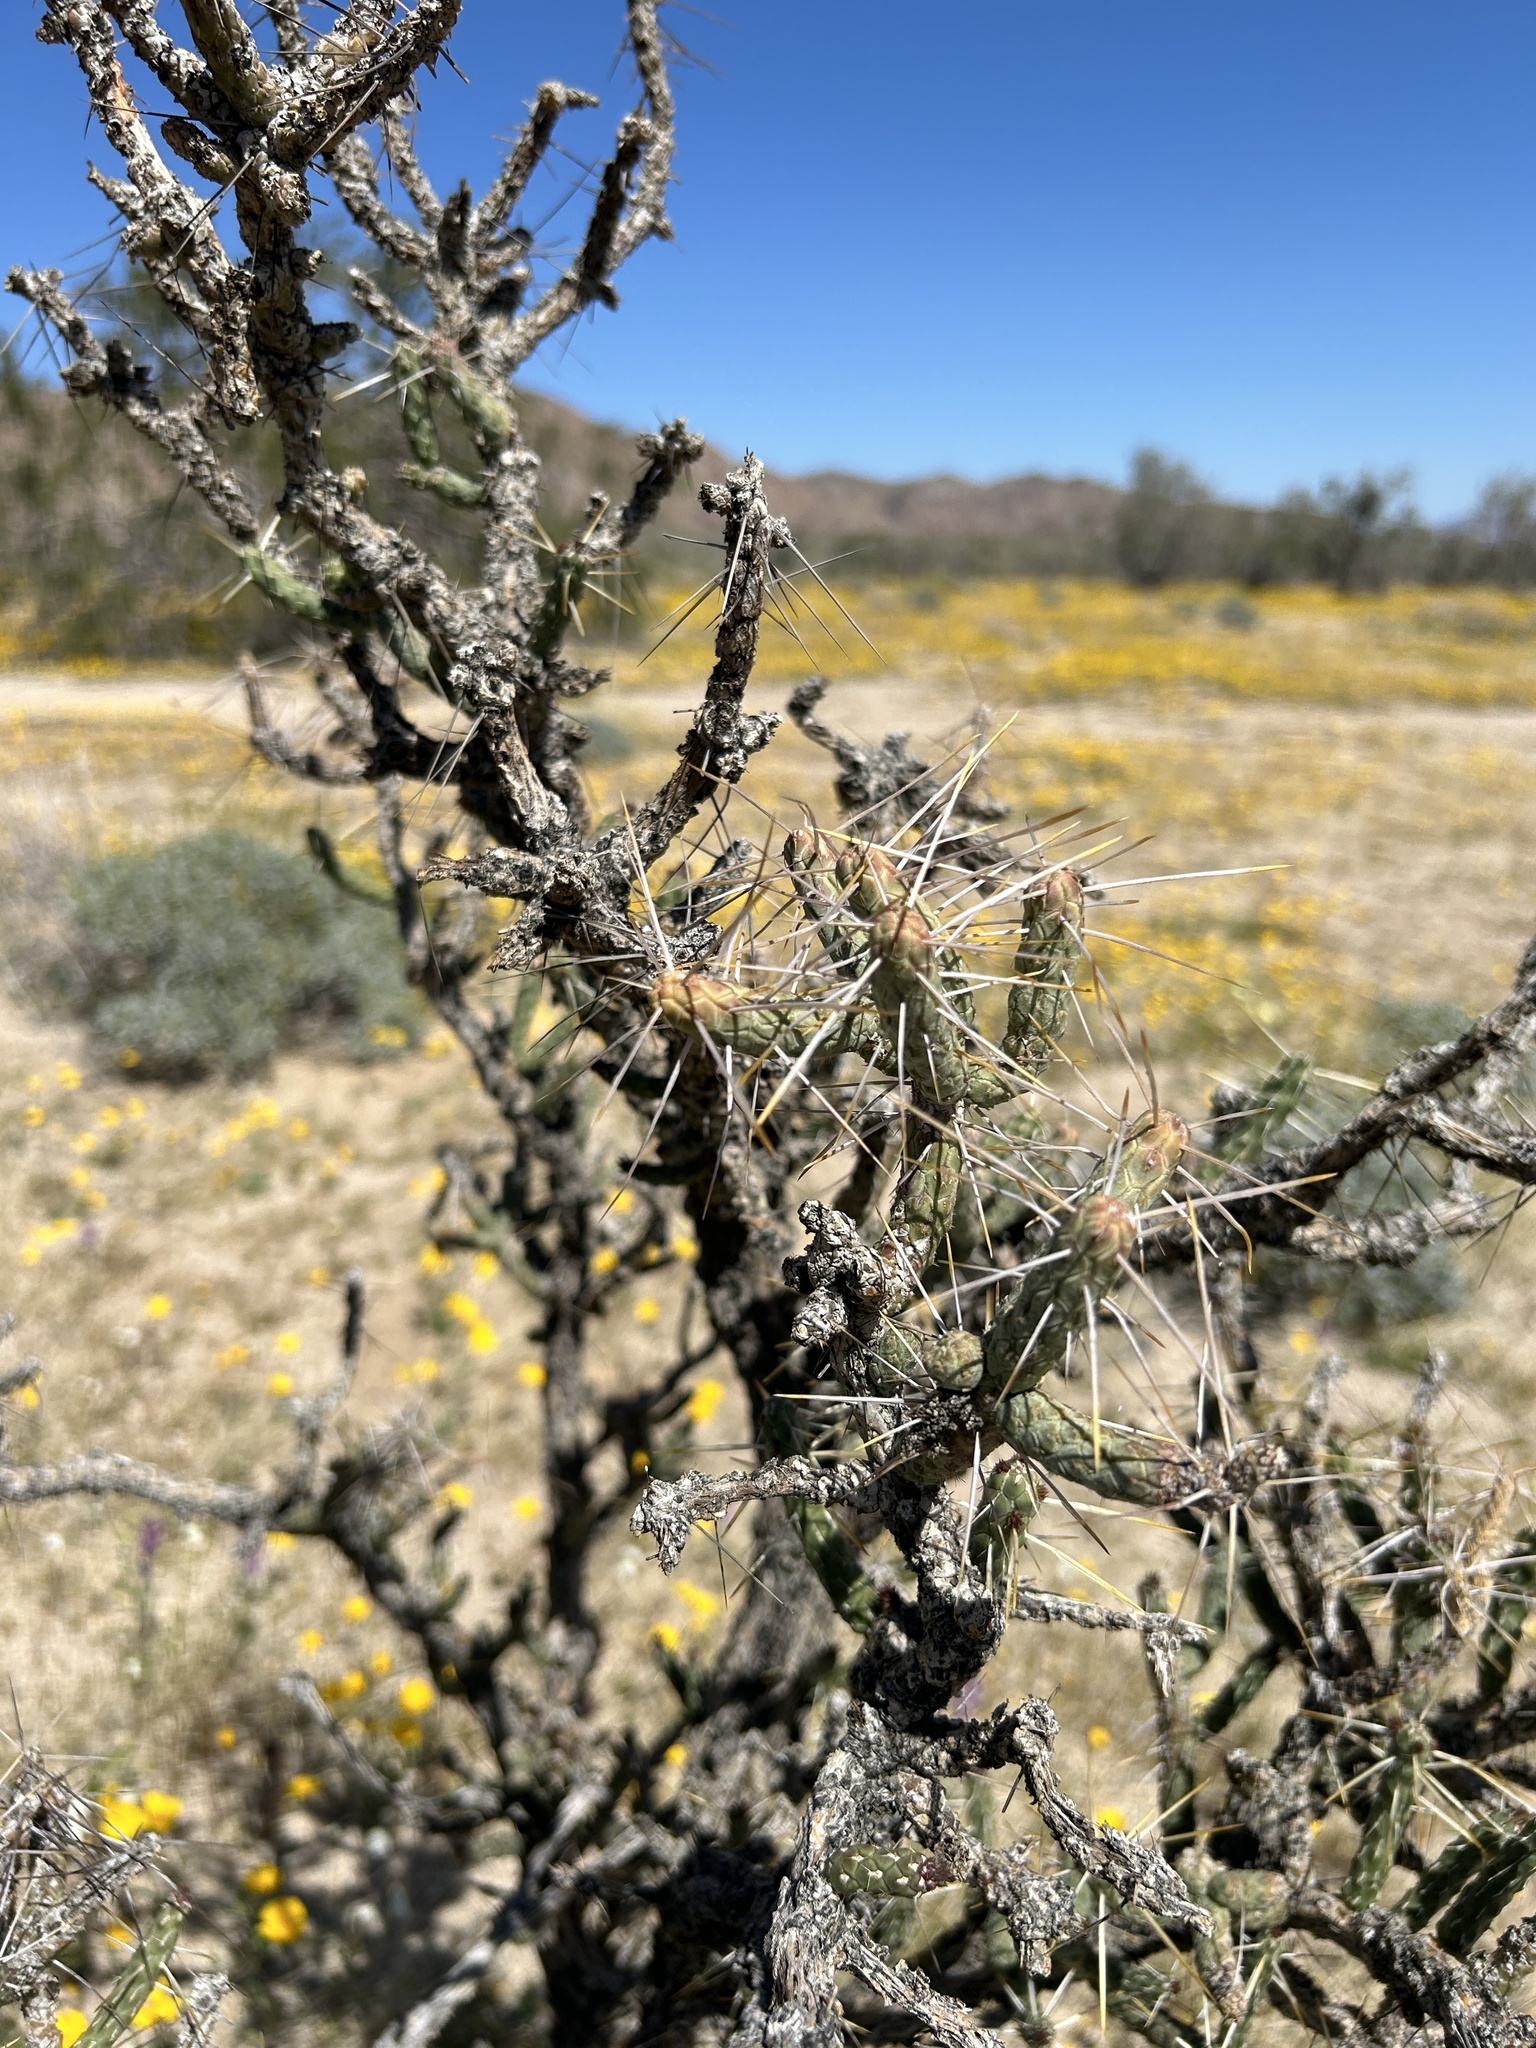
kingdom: Plantae
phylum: Tracheophyta
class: Magnoliopsida
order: Caryophyllales
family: Cactaceae
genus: Cylindropuntia
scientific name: Cylindropuntia ramosissima
